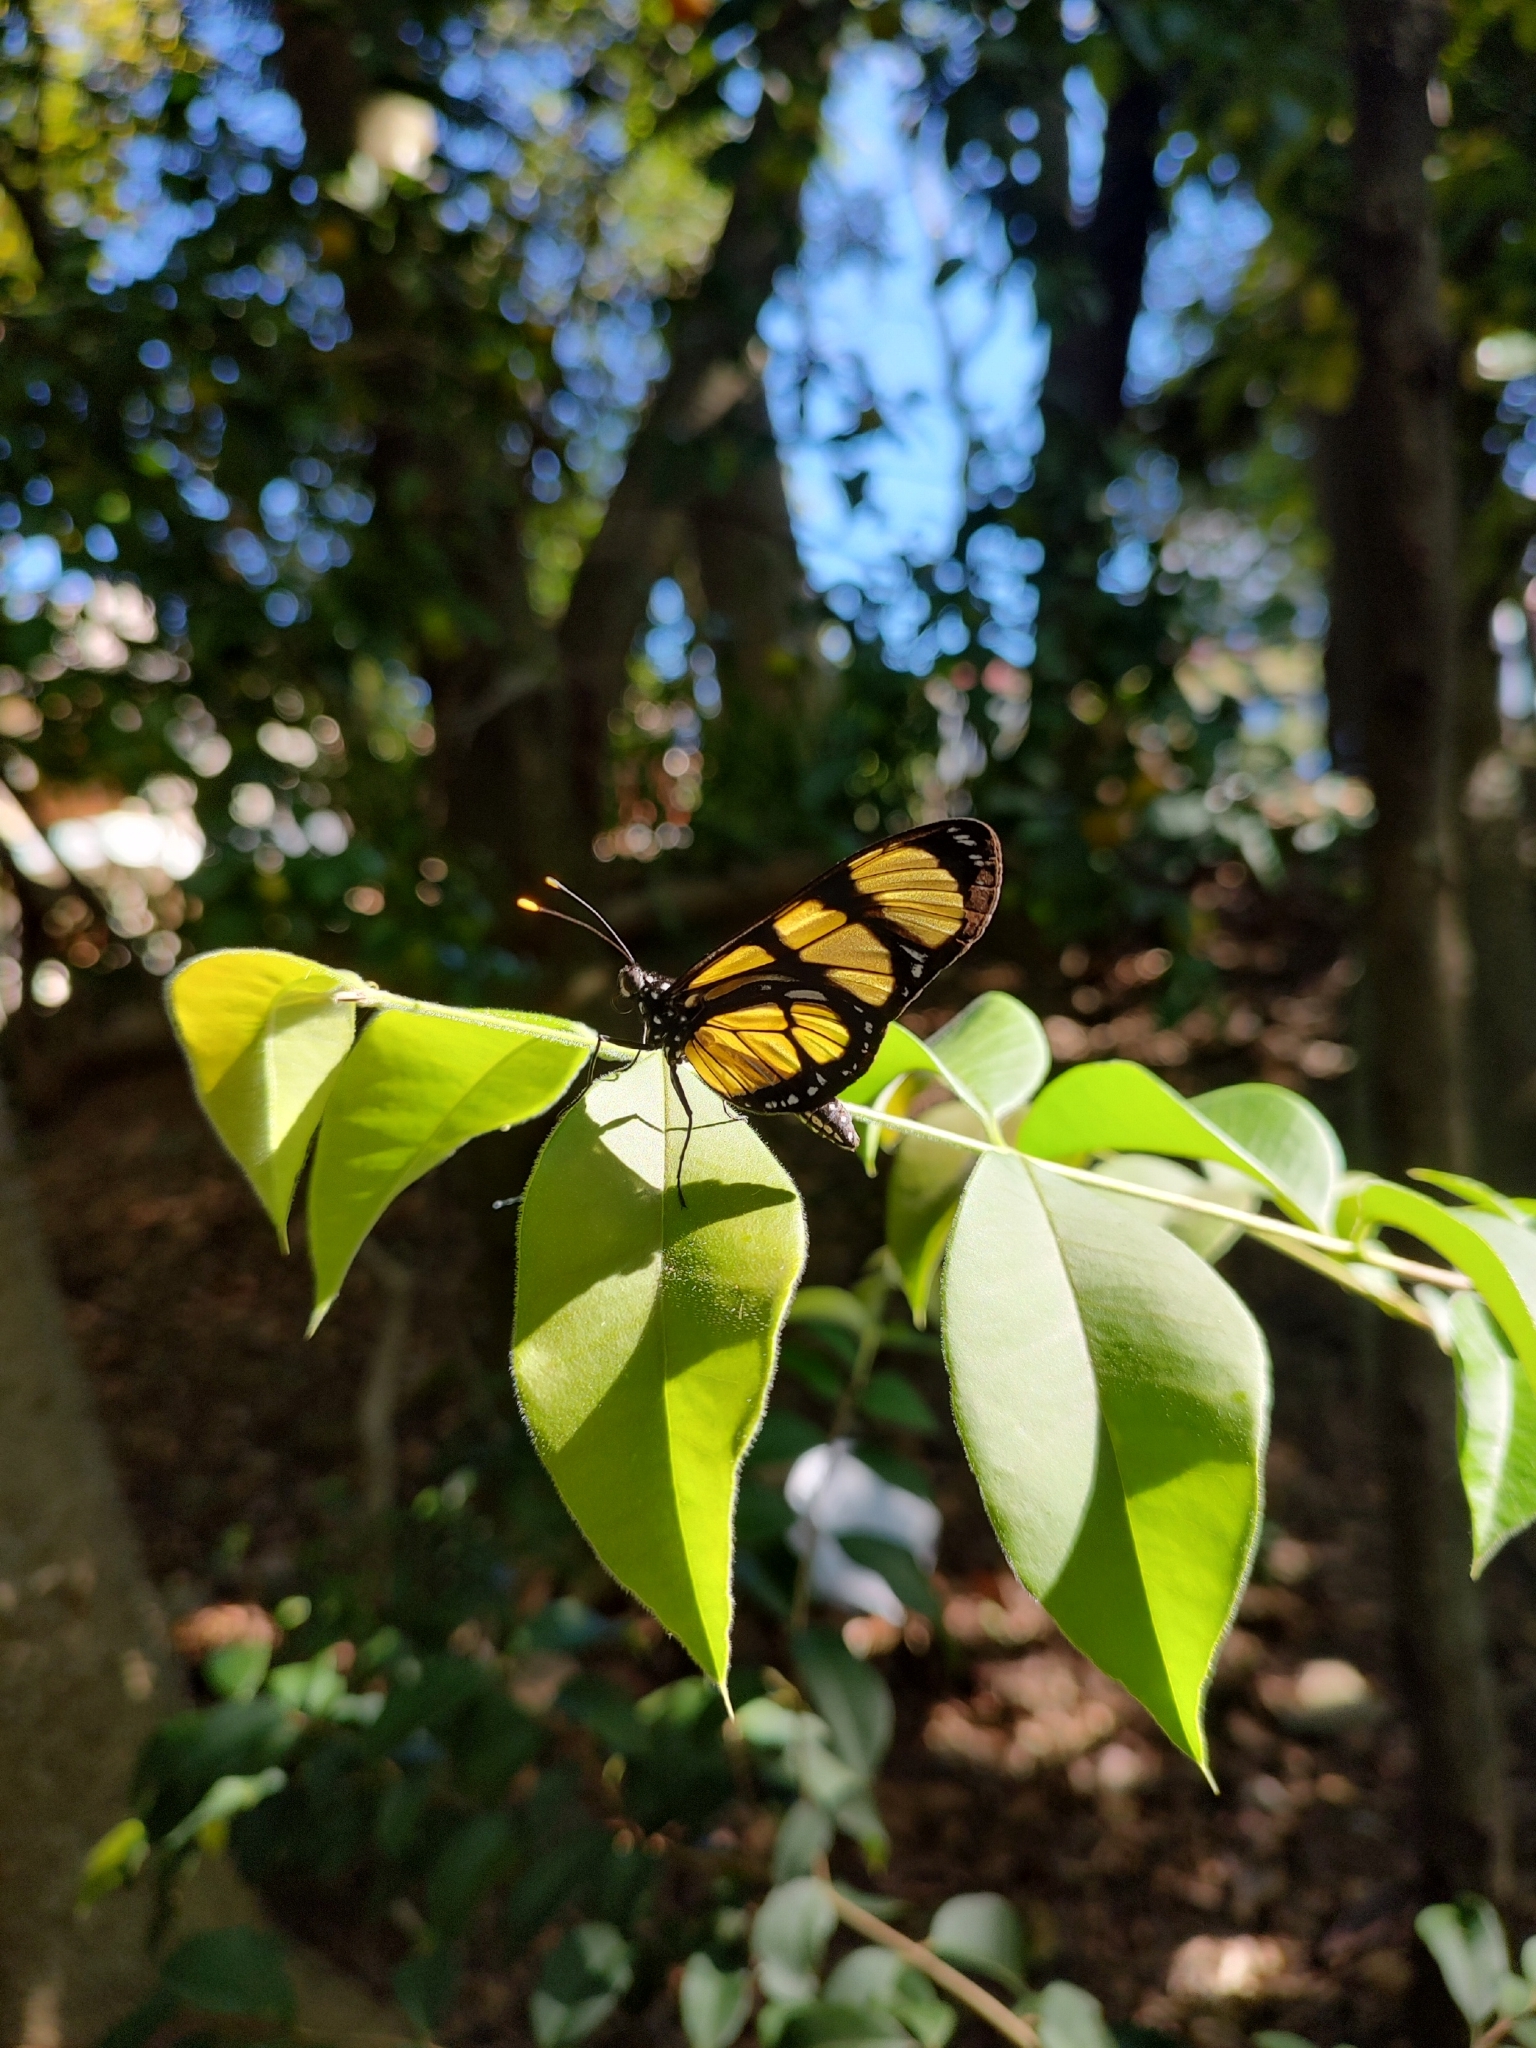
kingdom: Animalia
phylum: Arthropoda
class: Insecta
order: Lepidoptera
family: Nymphalidae
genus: Methona
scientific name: Methona themisto
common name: Themisto amberwing
